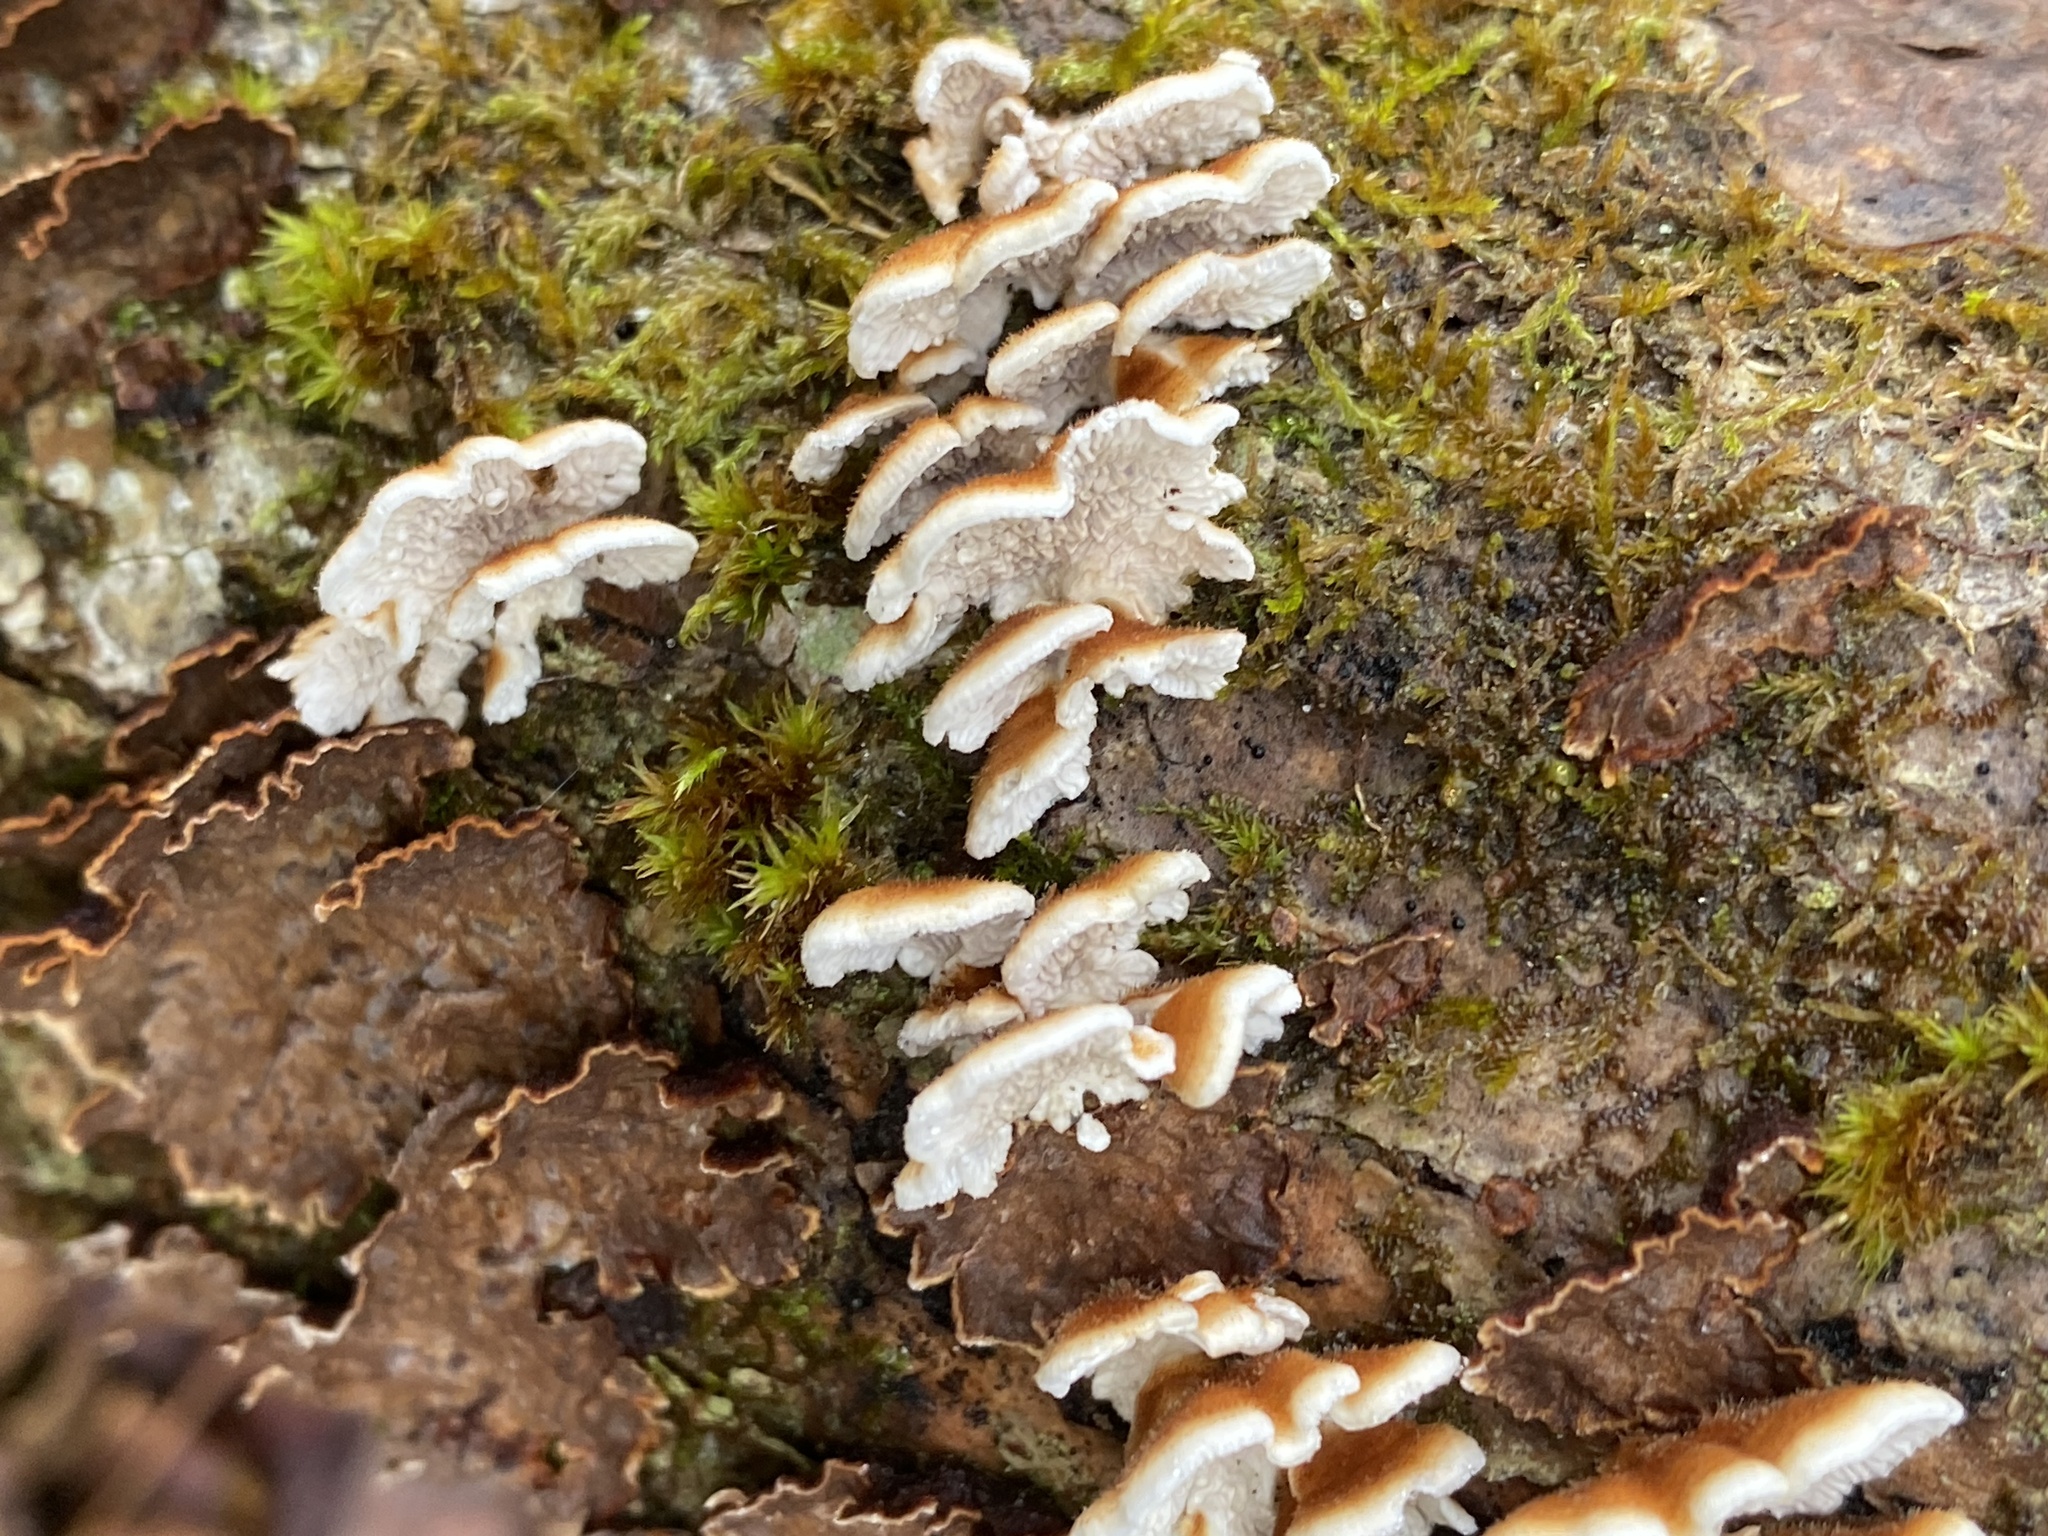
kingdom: Fungi
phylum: Basidiomycota
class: Agaricomycetes
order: Amylocorticiales
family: Amylocorticiaceae
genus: Plicaturopsis
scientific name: Plicaturopsis crispa
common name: Crimped gill
